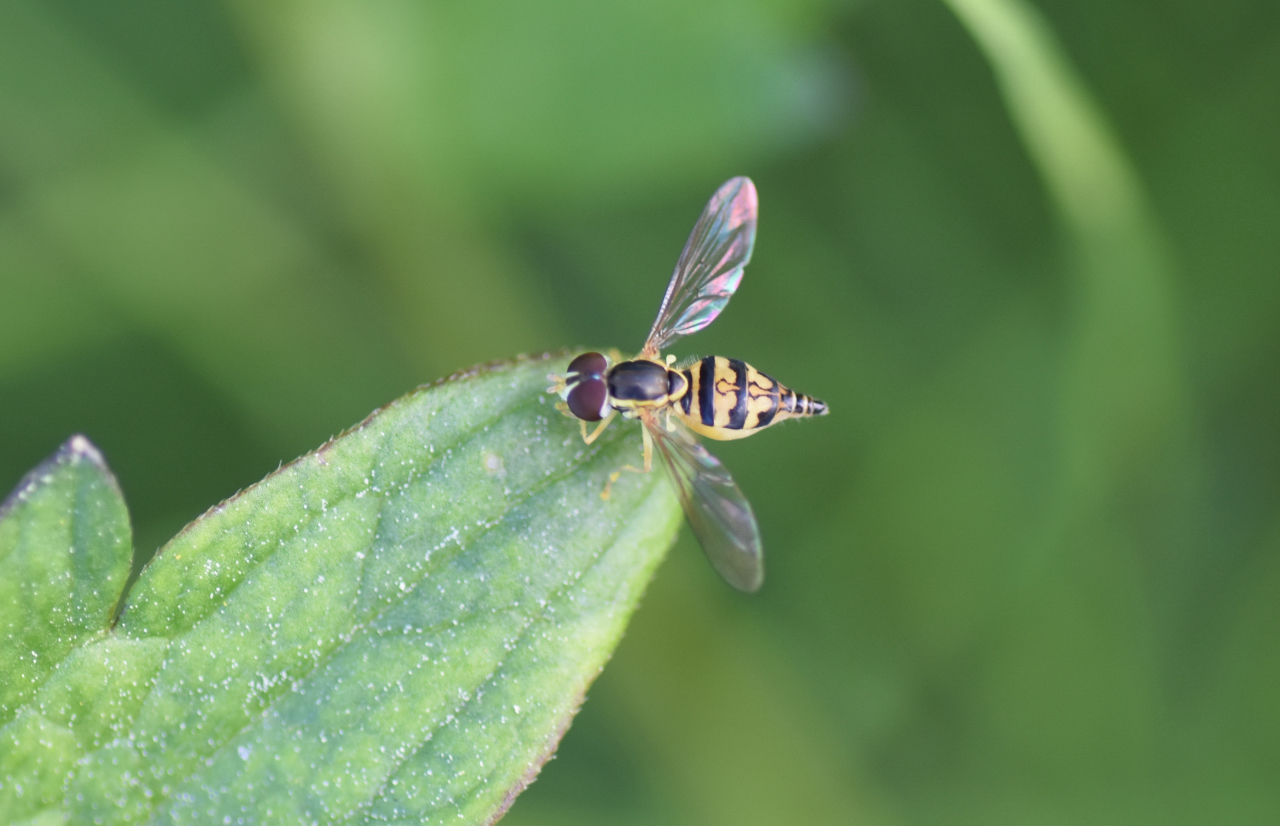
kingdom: Animalia
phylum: Arthropoda
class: Insecta
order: Diptera
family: Syrphidae
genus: Toxomerus
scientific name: Toxomerus geminatus
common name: Eastern calligrapher
